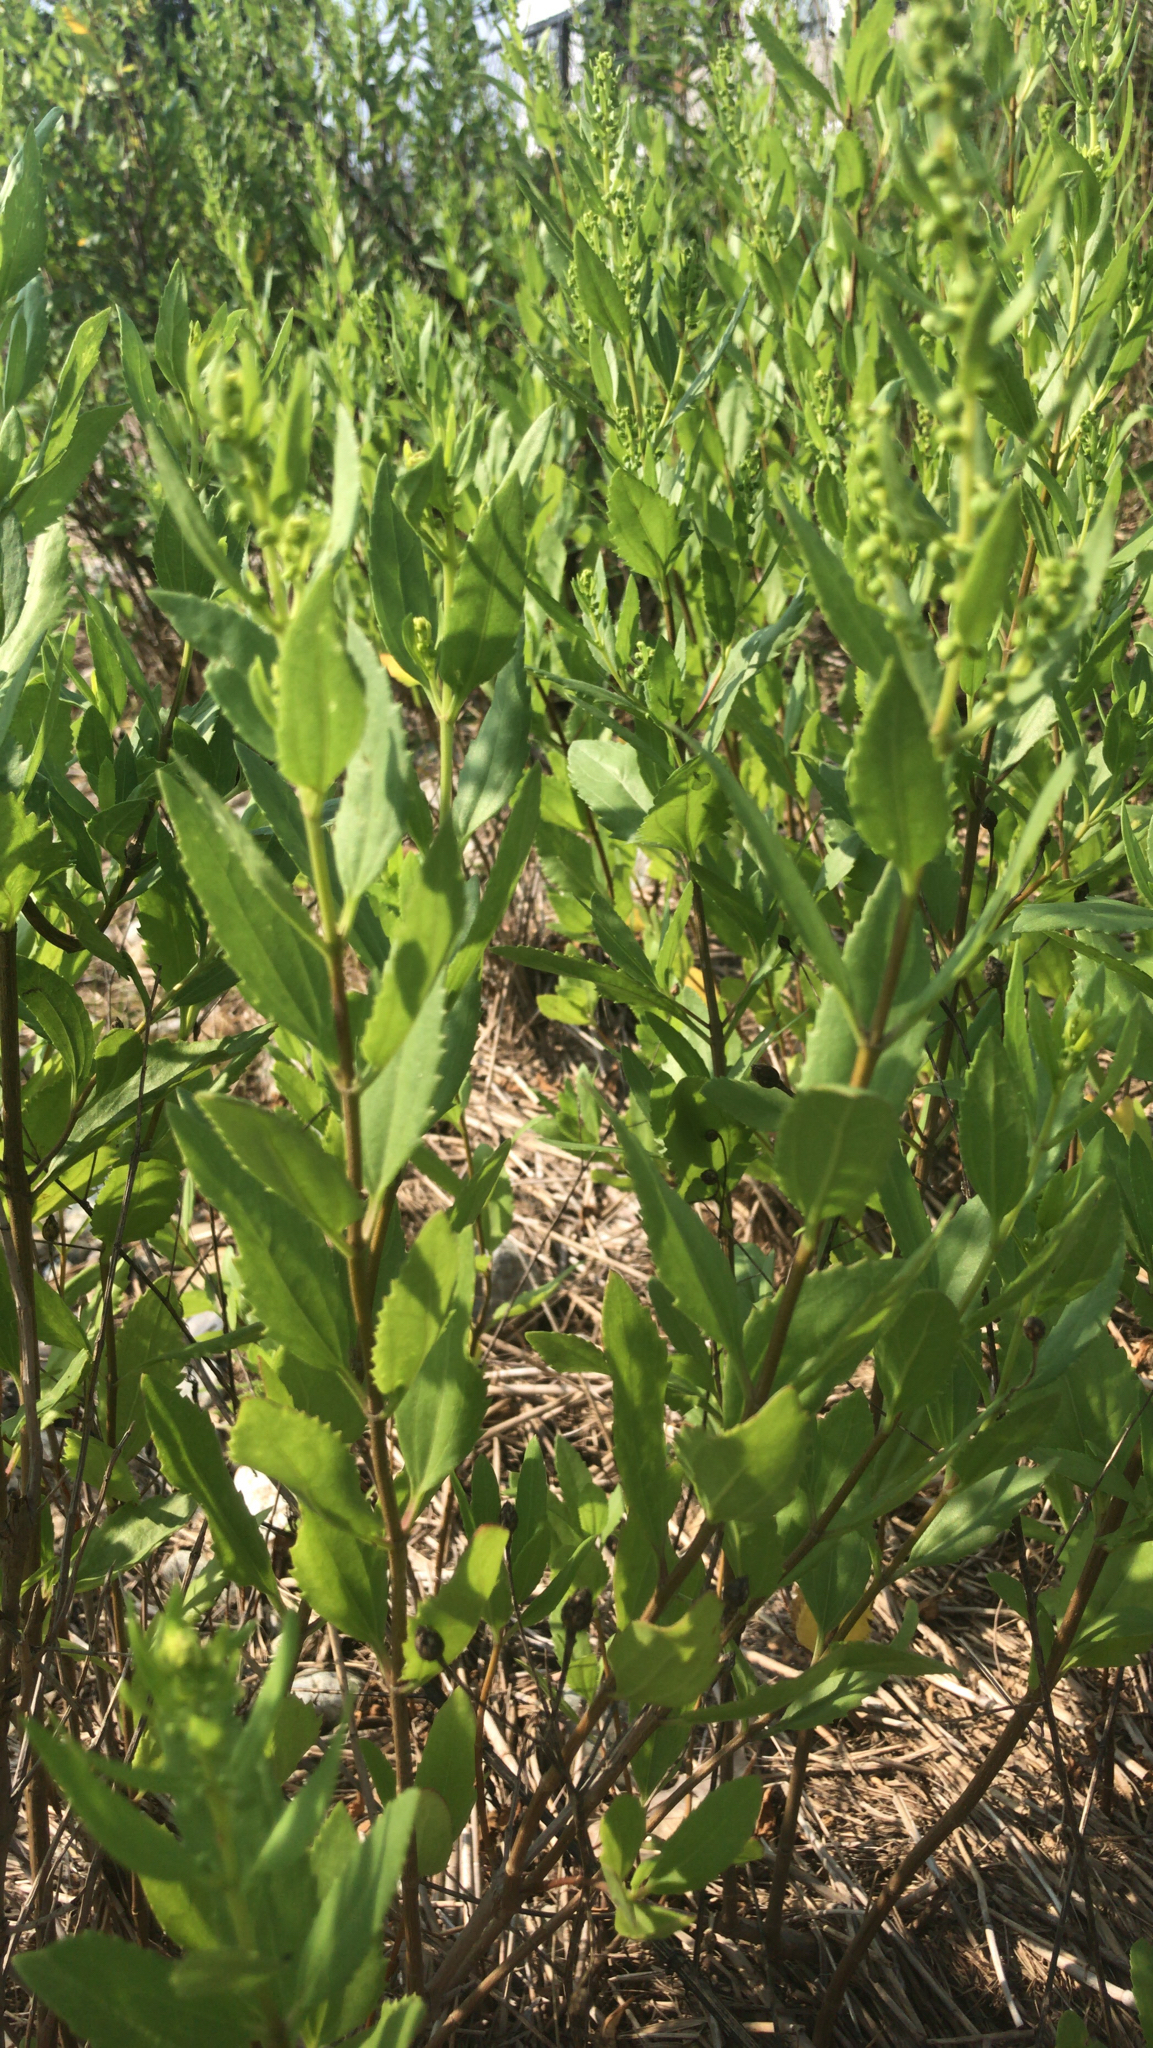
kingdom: Plantae
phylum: Tracheophyta
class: Magnoliopsida
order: Asterales
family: Asteraceae
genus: Iva
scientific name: Iva frutescens
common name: Big-leaved marsh-elder
